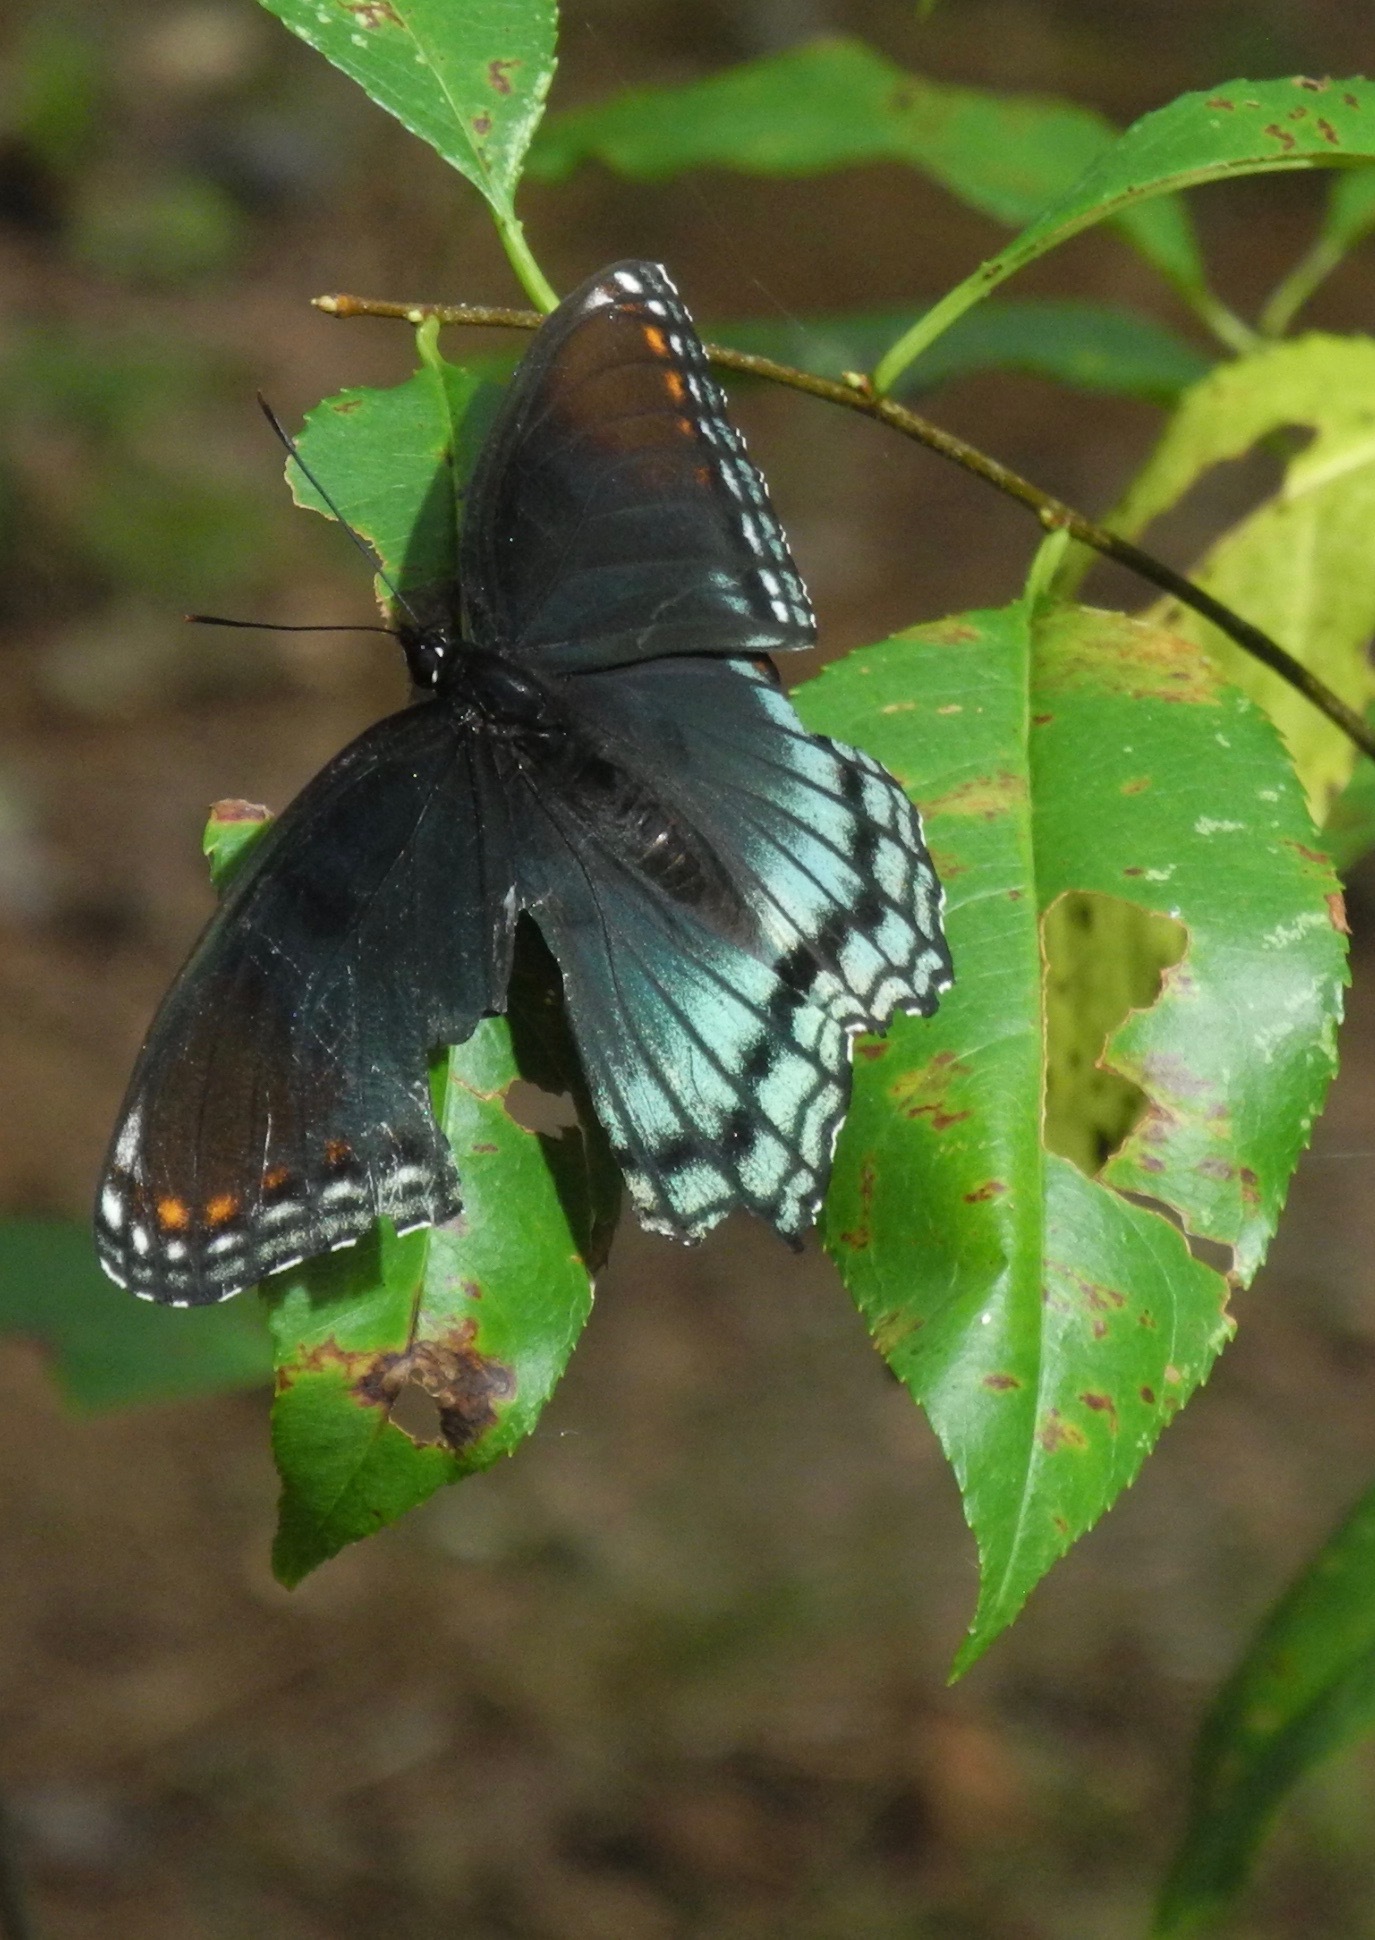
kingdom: Animalia
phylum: Arthropoda
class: Insecta
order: Lepidoptera
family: Nymphalidae
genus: Limenitis
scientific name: Limenitis astyanax
